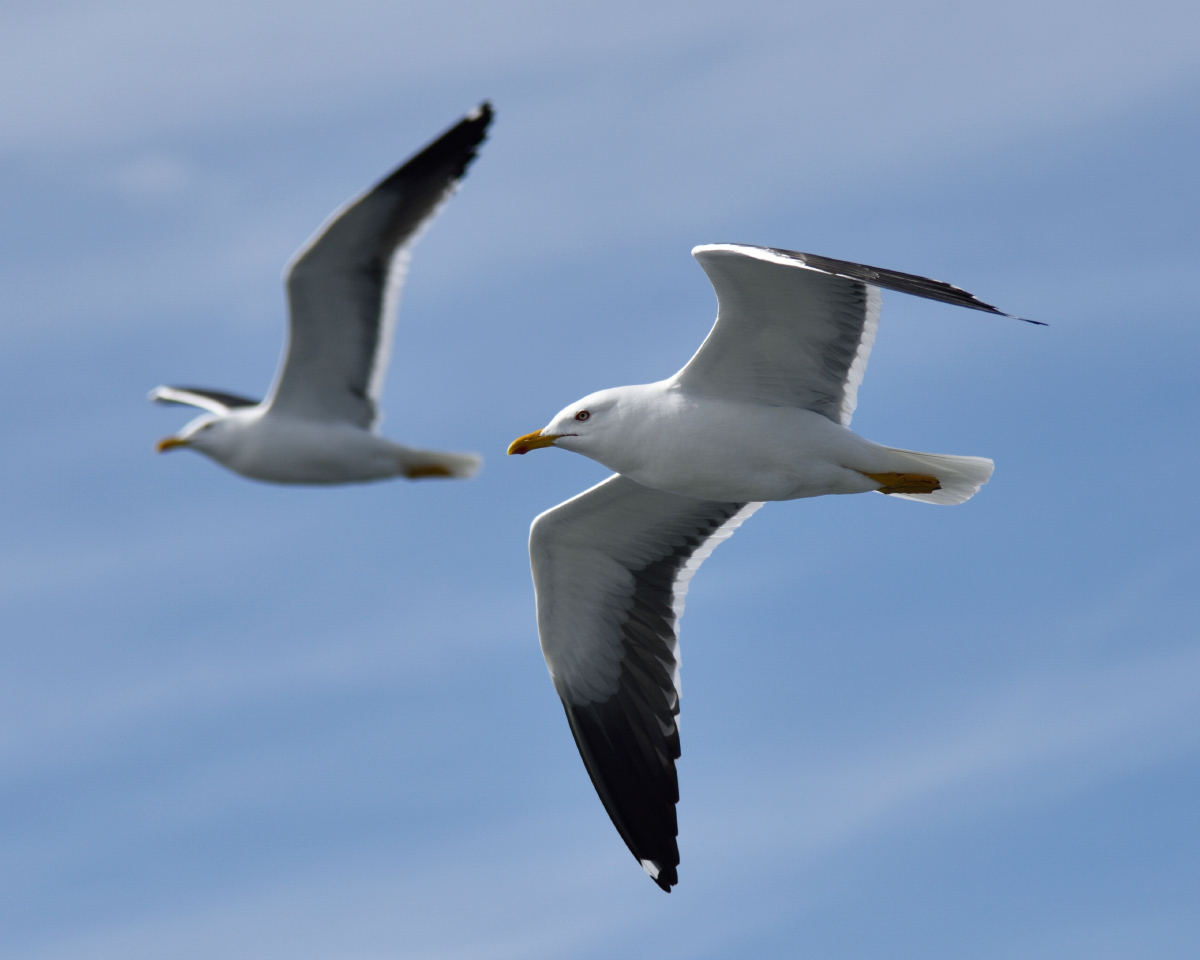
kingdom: Animalia
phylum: Chordata
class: Aves
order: Charadriiformes
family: Laridae
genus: Larus
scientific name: Larus fuscus
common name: Lesser black-backed gull
